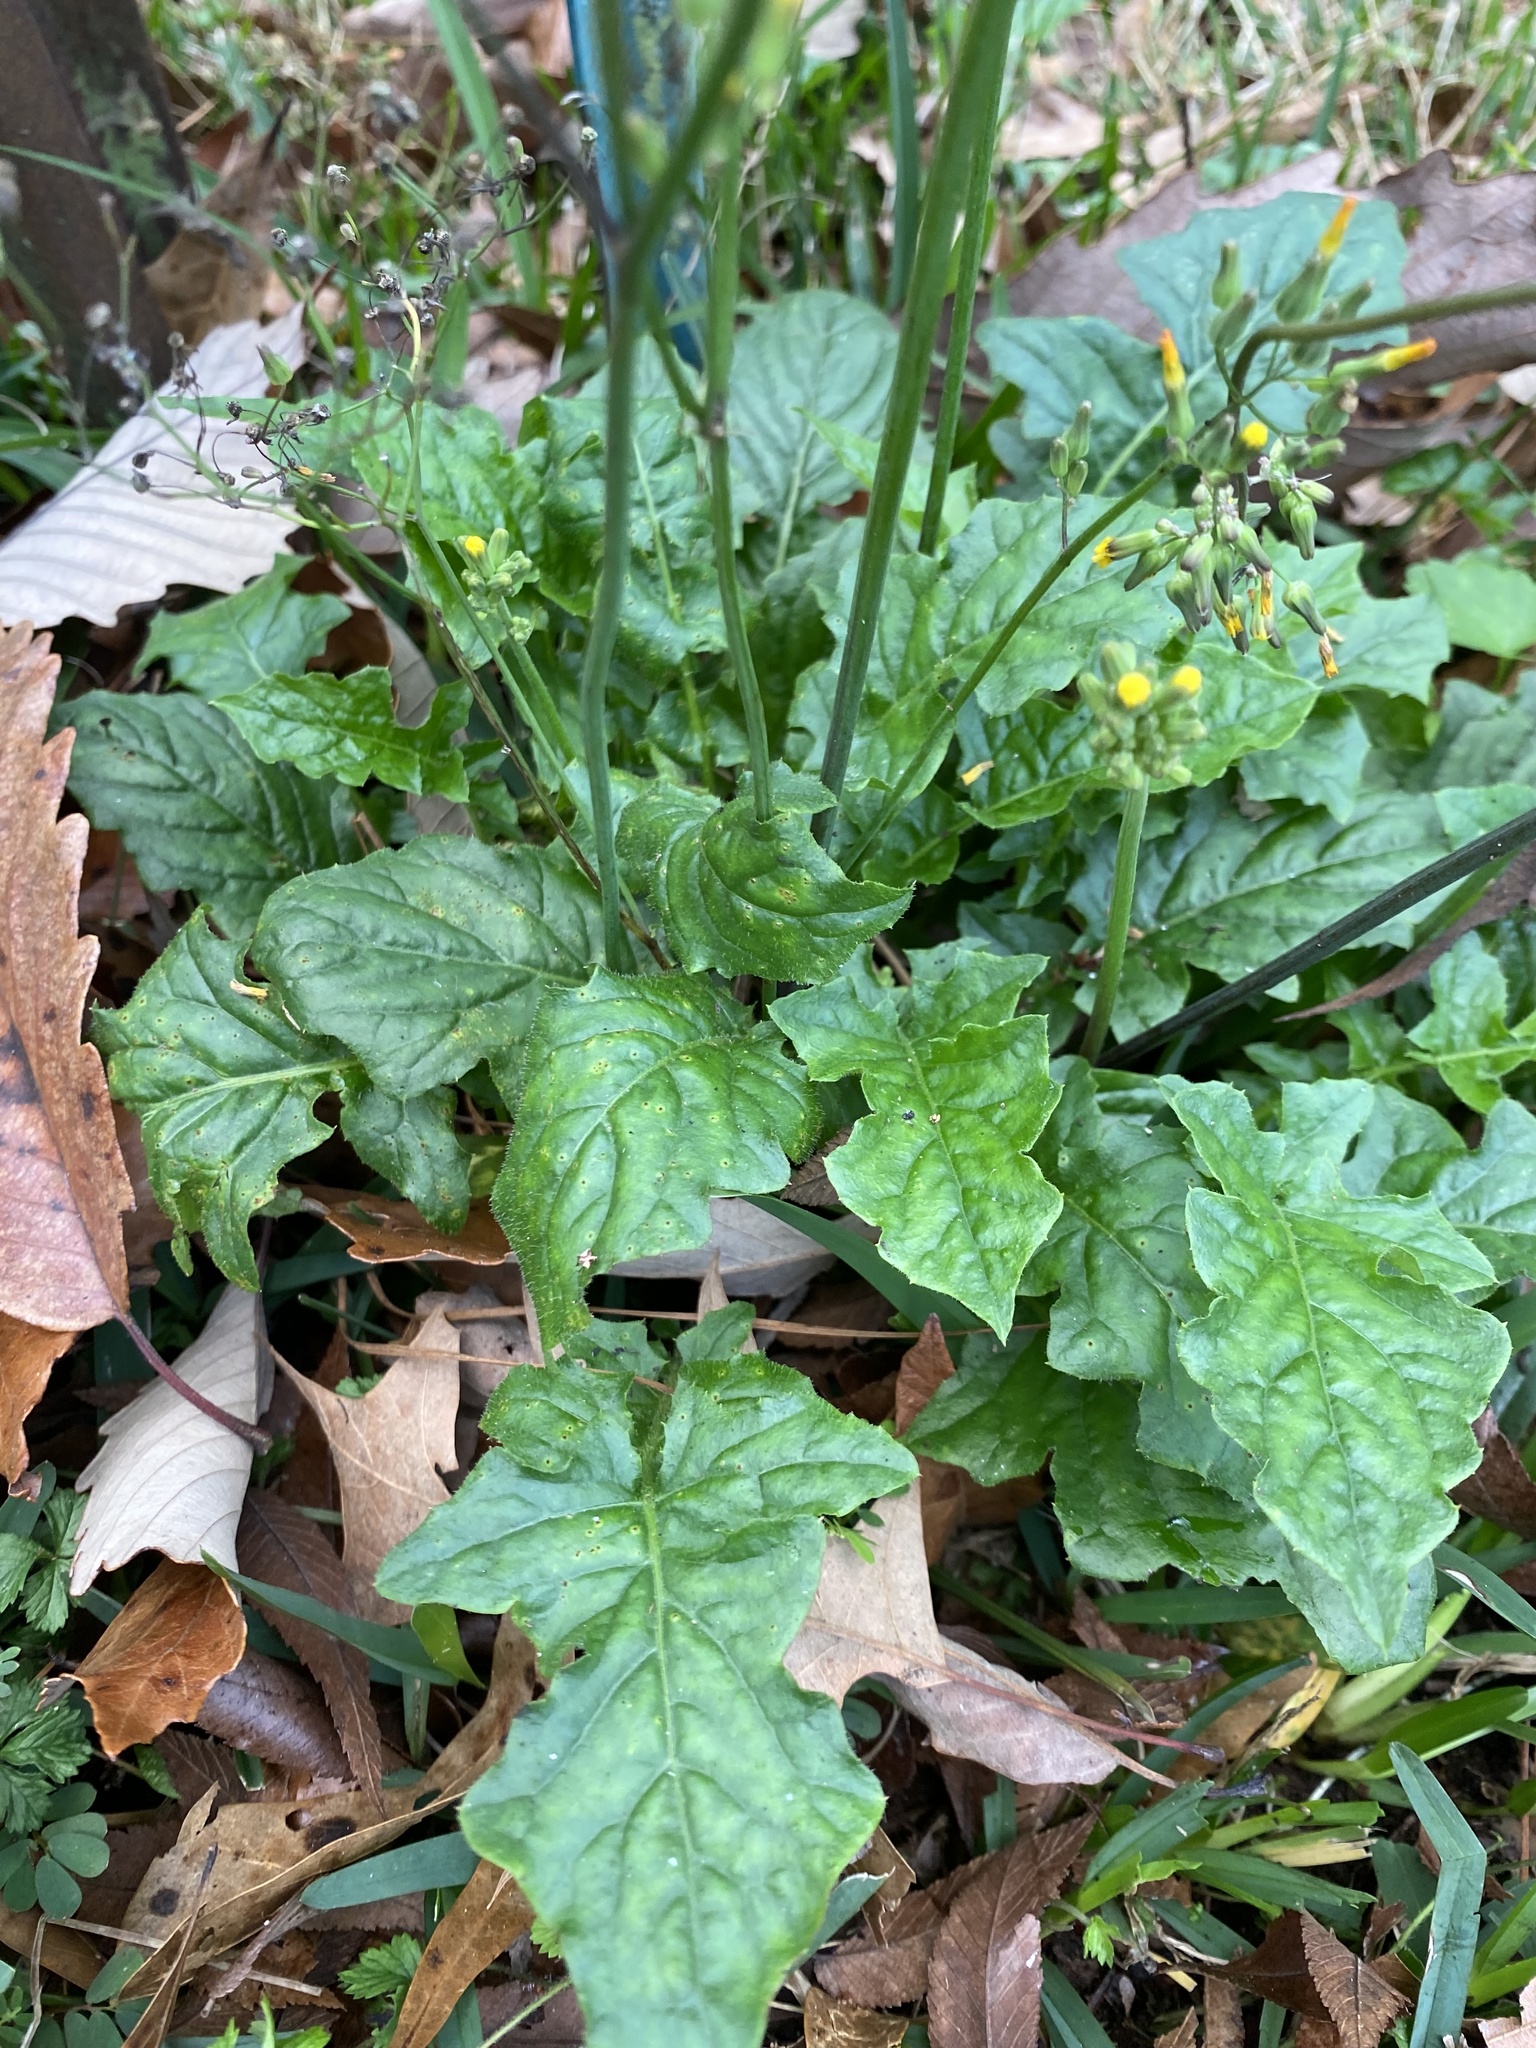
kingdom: Plantae
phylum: Tracheophyta
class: Magnoliopsida
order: Asterales
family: Asteraceae
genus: Youngia
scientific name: Youngia japonica
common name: Oriental false hawksbeard
